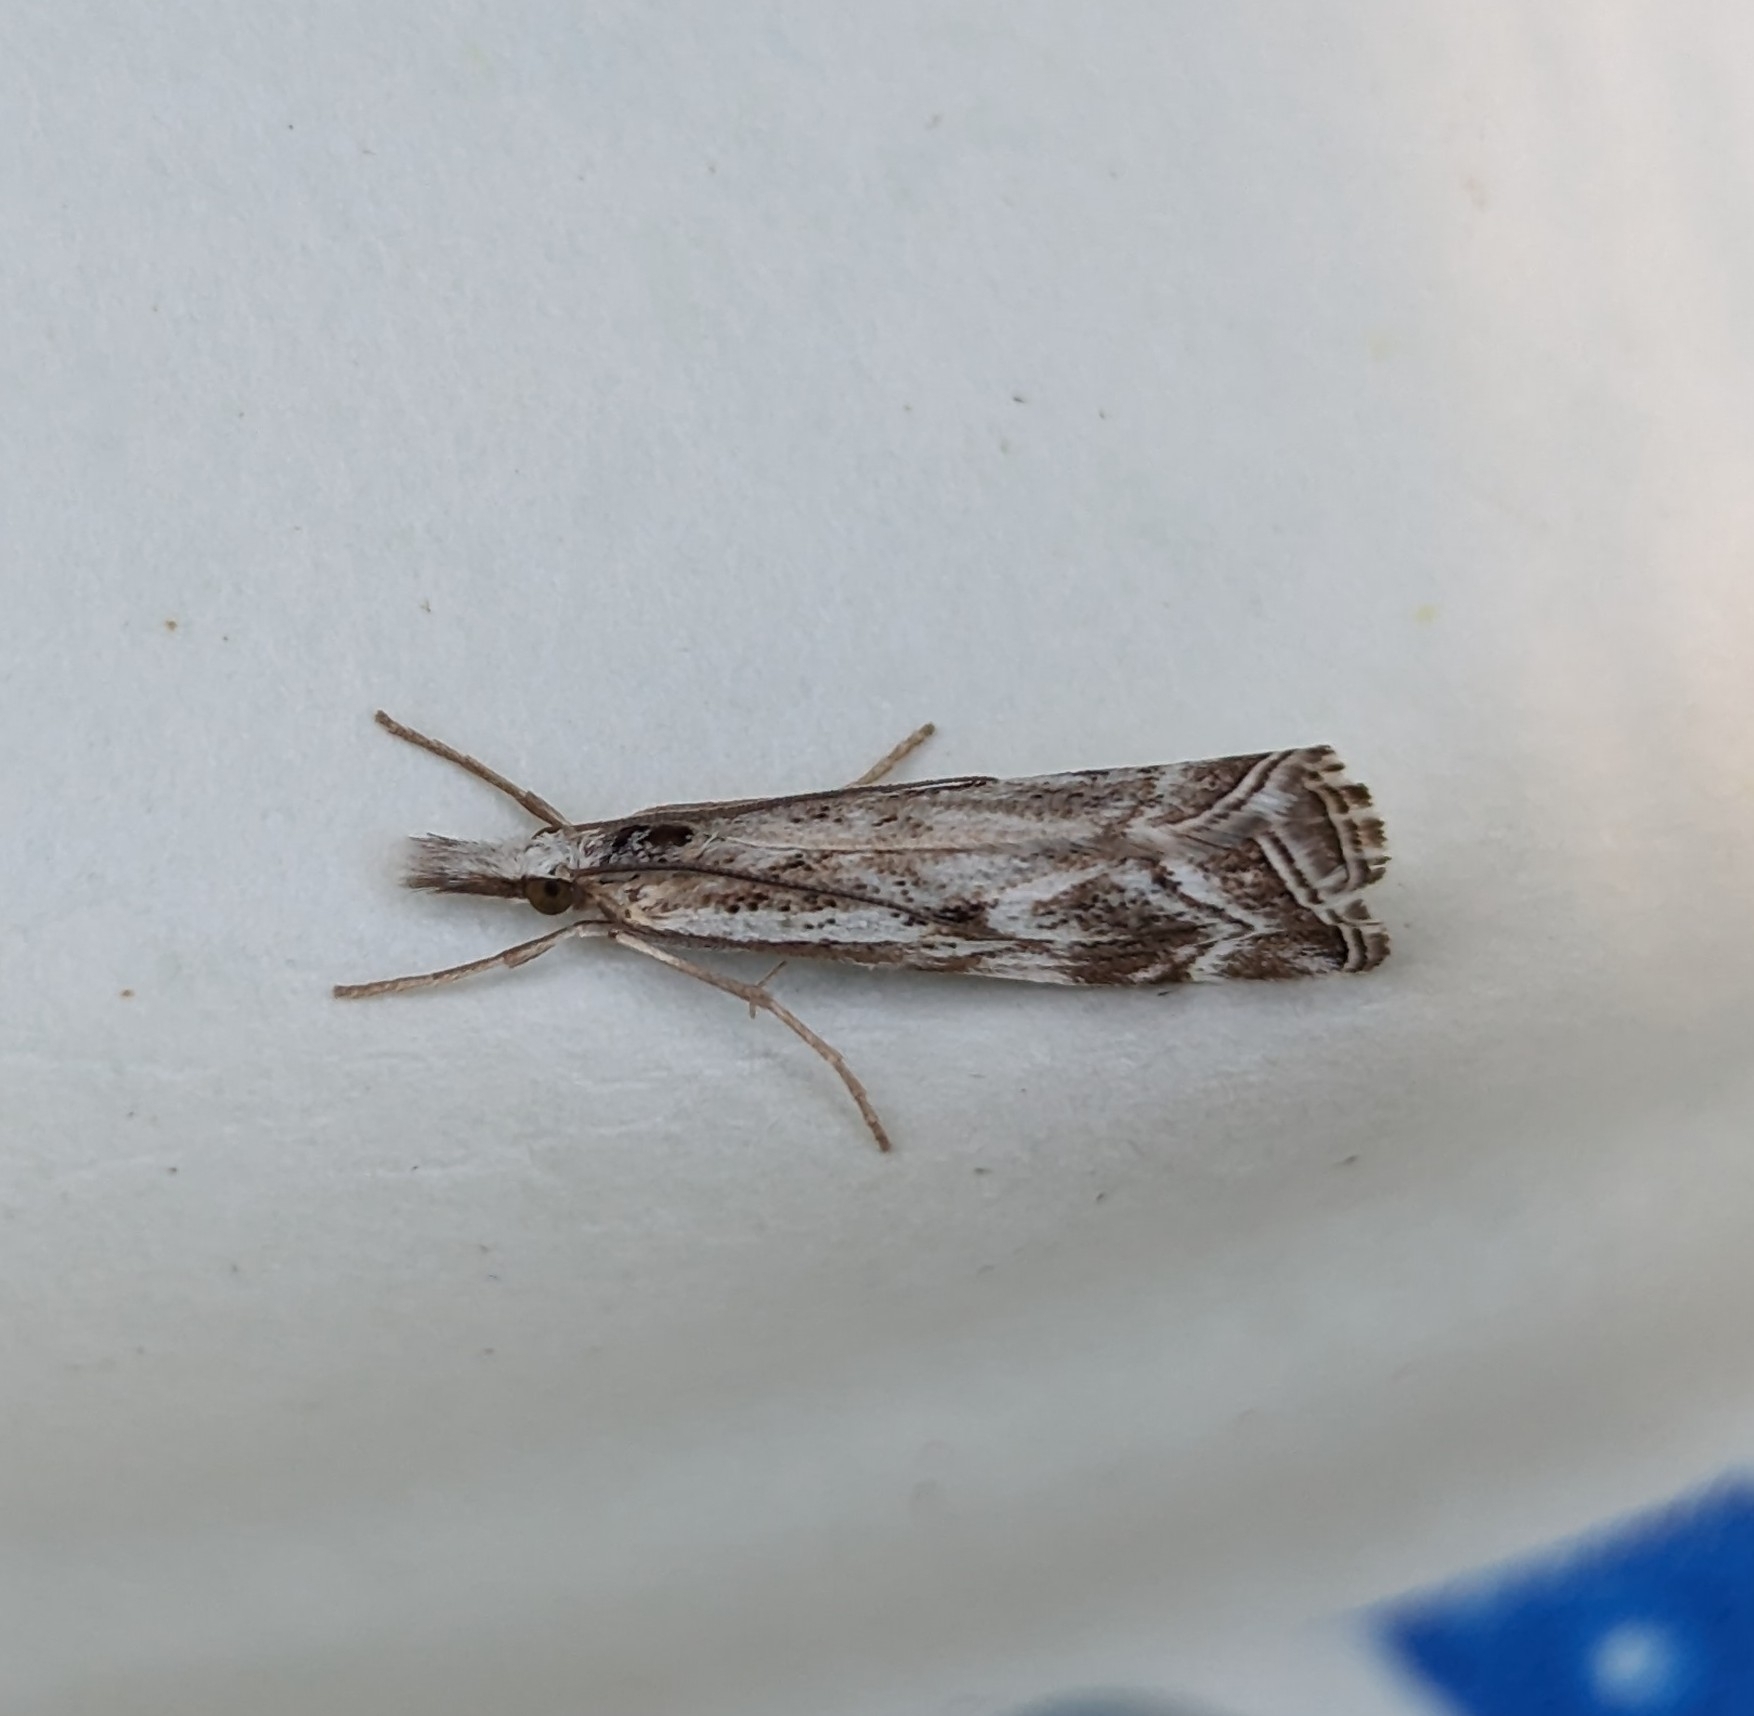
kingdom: Animalia
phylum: Arthropoda
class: Insecta
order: Lepidoptera
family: Crambidae
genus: Catoptria
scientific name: Catoptria oregonicus
